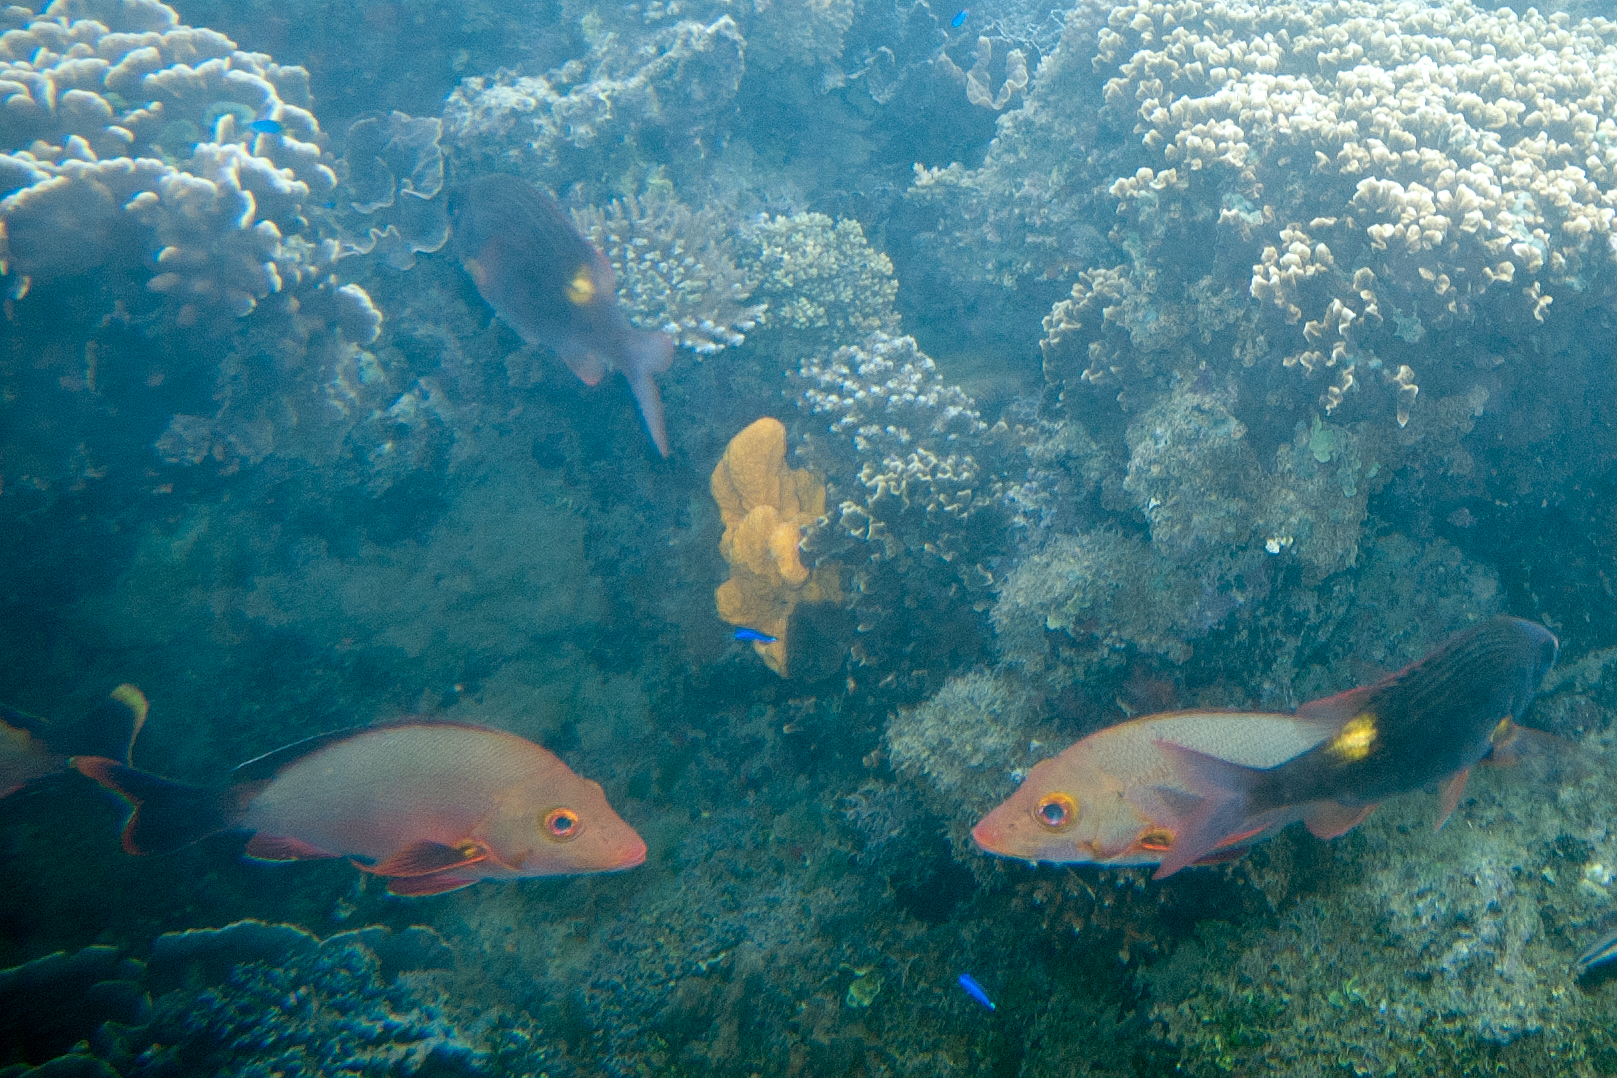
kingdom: Animalia
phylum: Chordata
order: Perciformes
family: Lutjanidae
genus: Lutjanus
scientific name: Lutjanus gibbus
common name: Humpback snapper
